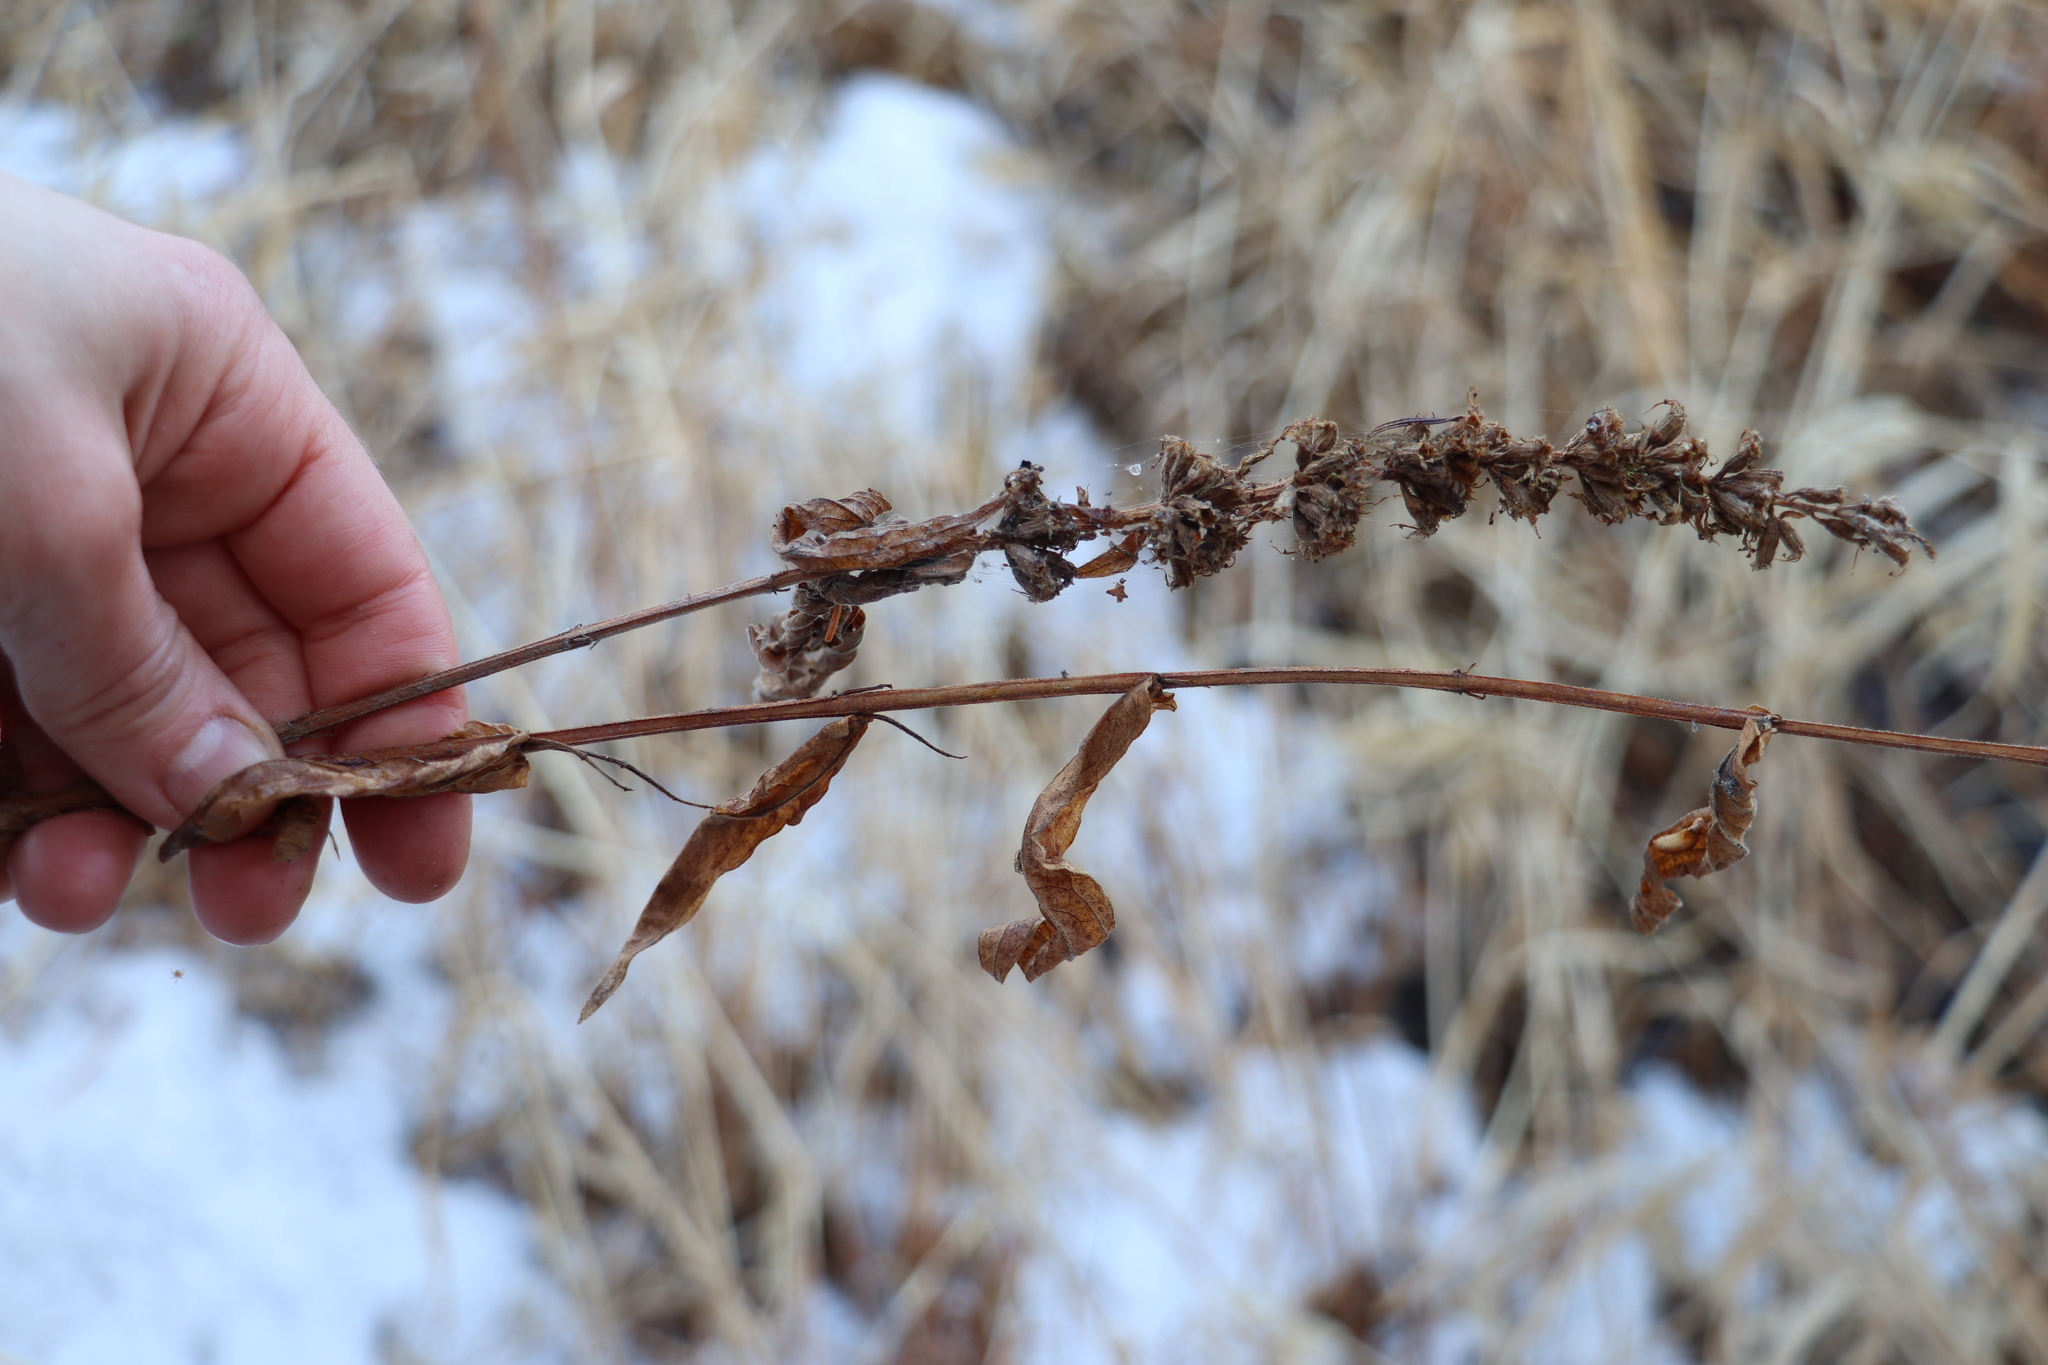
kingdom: Plantae
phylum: Tracheophyta
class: Magnoliopsida
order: Lamiales
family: Lamiaceae
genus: Stachys
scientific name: Stachys palustris
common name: Marsh woundwort
